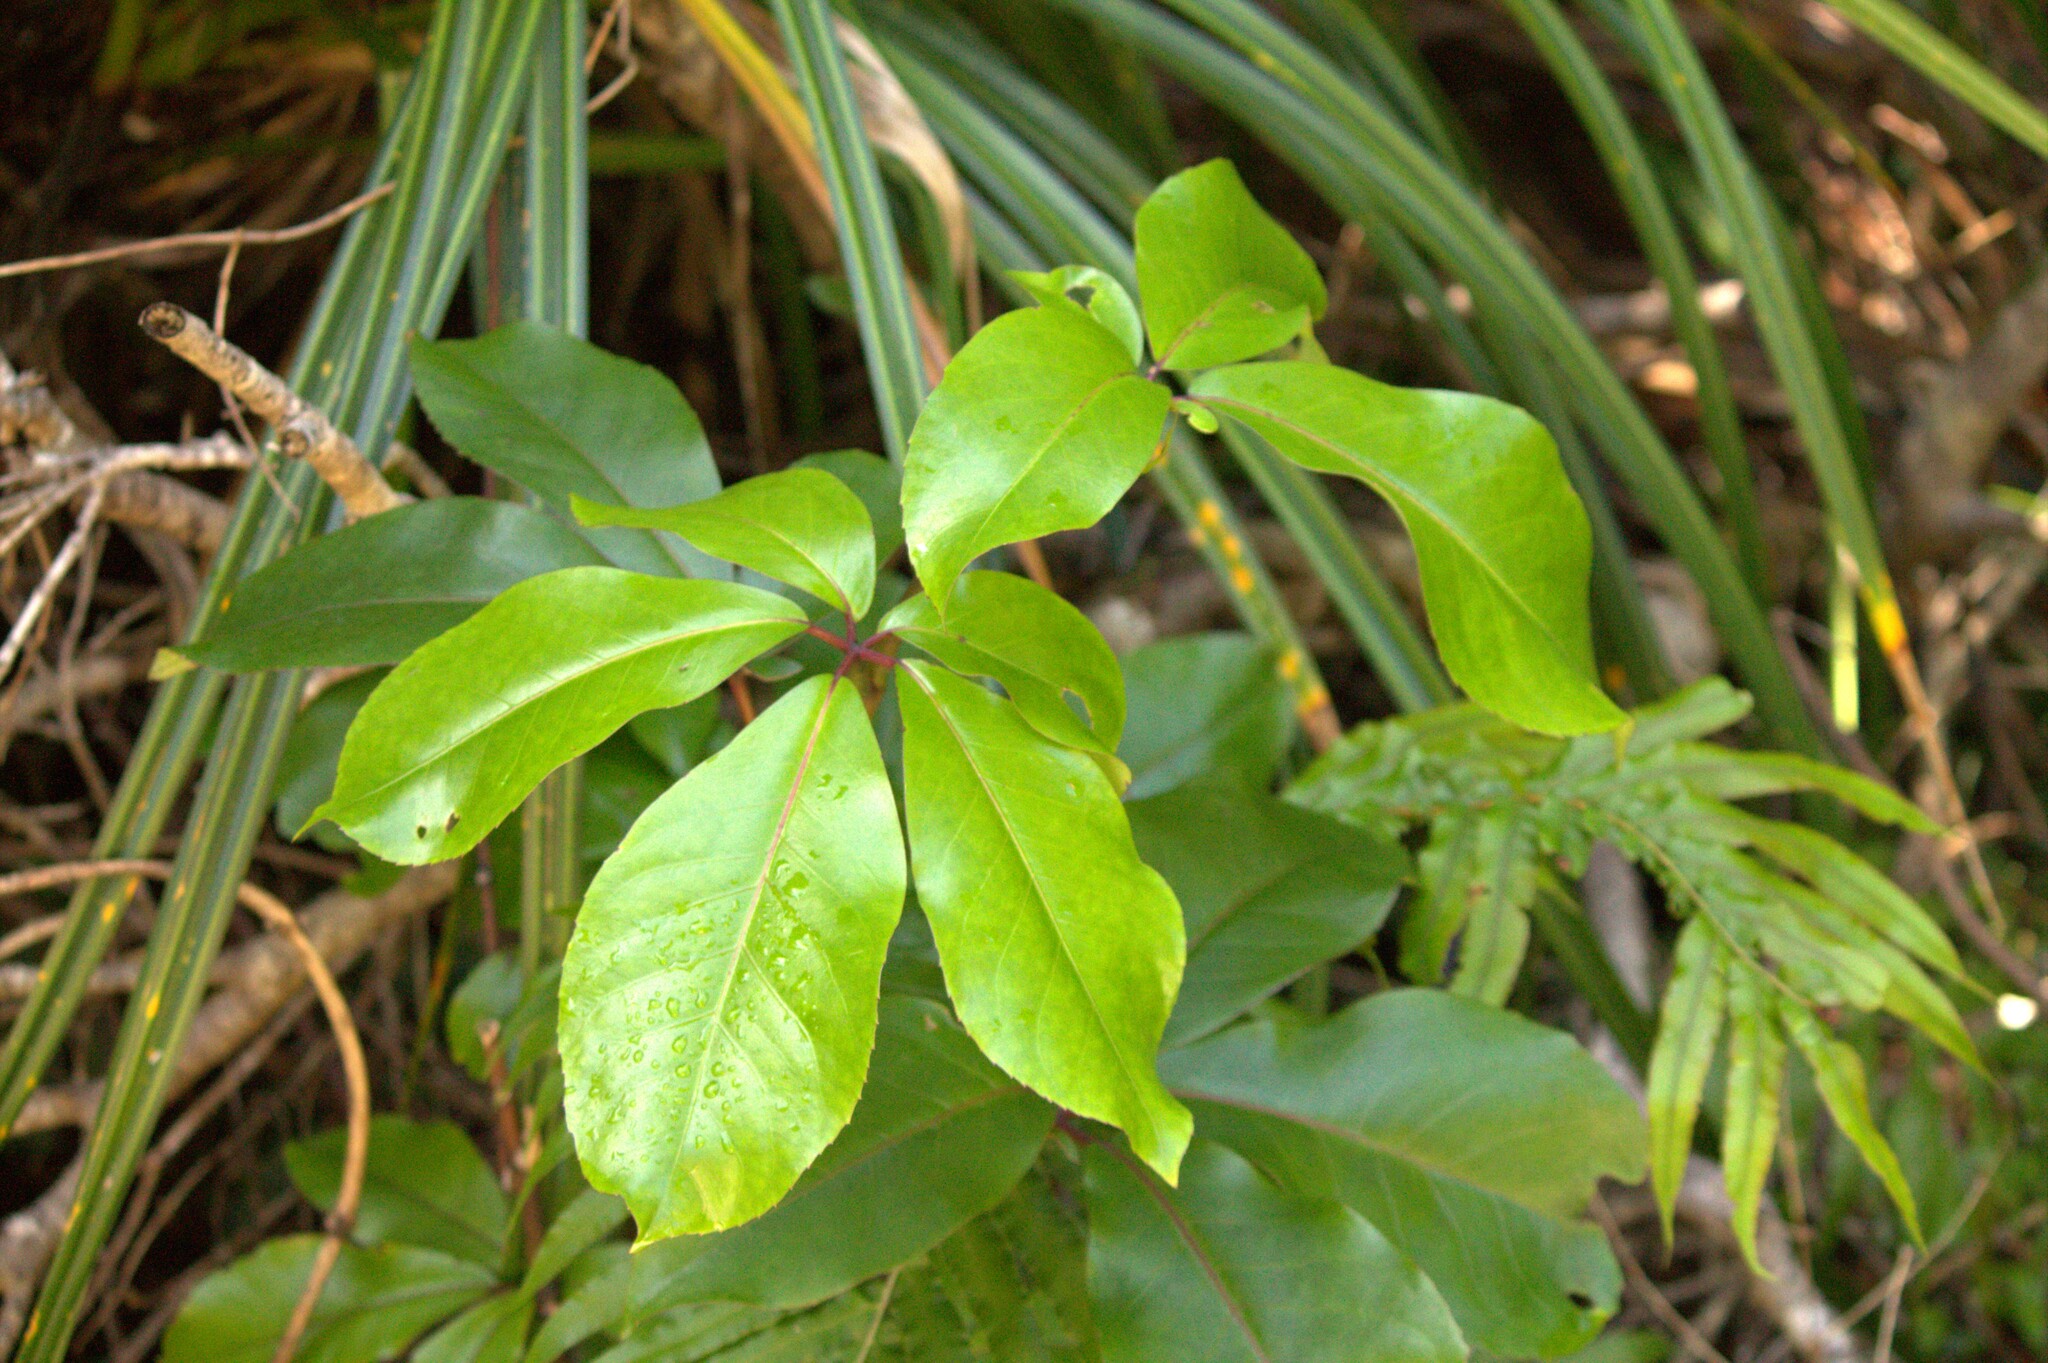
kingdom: Plantae
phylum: Tracheophyta
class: Magnoliopsida
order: Apiales
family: Araliaceae
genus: Neopanax
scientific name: Neopanax laetus
